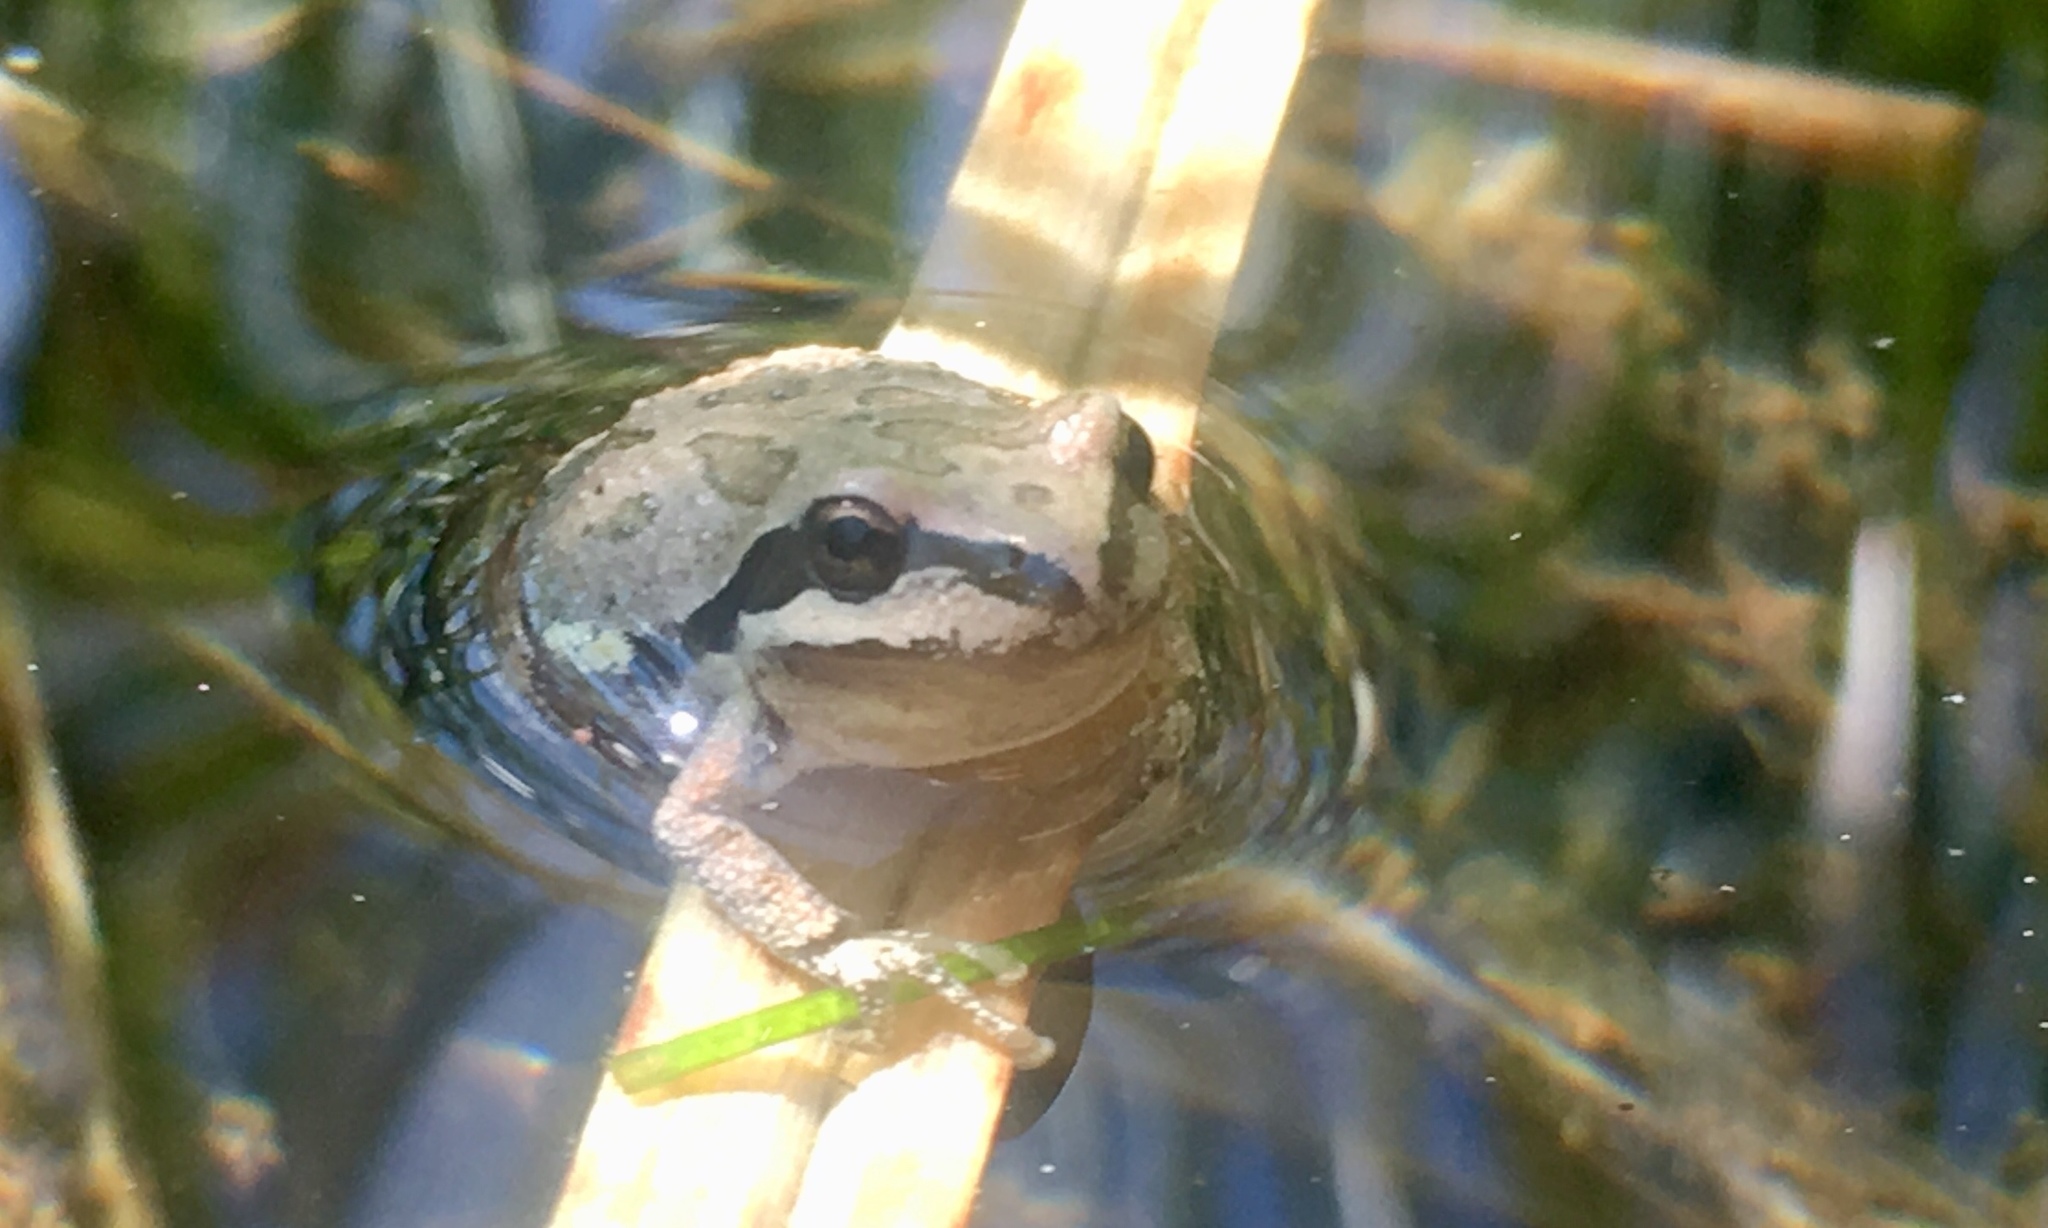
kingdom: Animalia
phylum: Chordata
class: Amphibia
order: Anura
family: Hylidae
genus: Pseudacris
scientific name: Pseudacris regilla
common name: Pacific chorus frog
